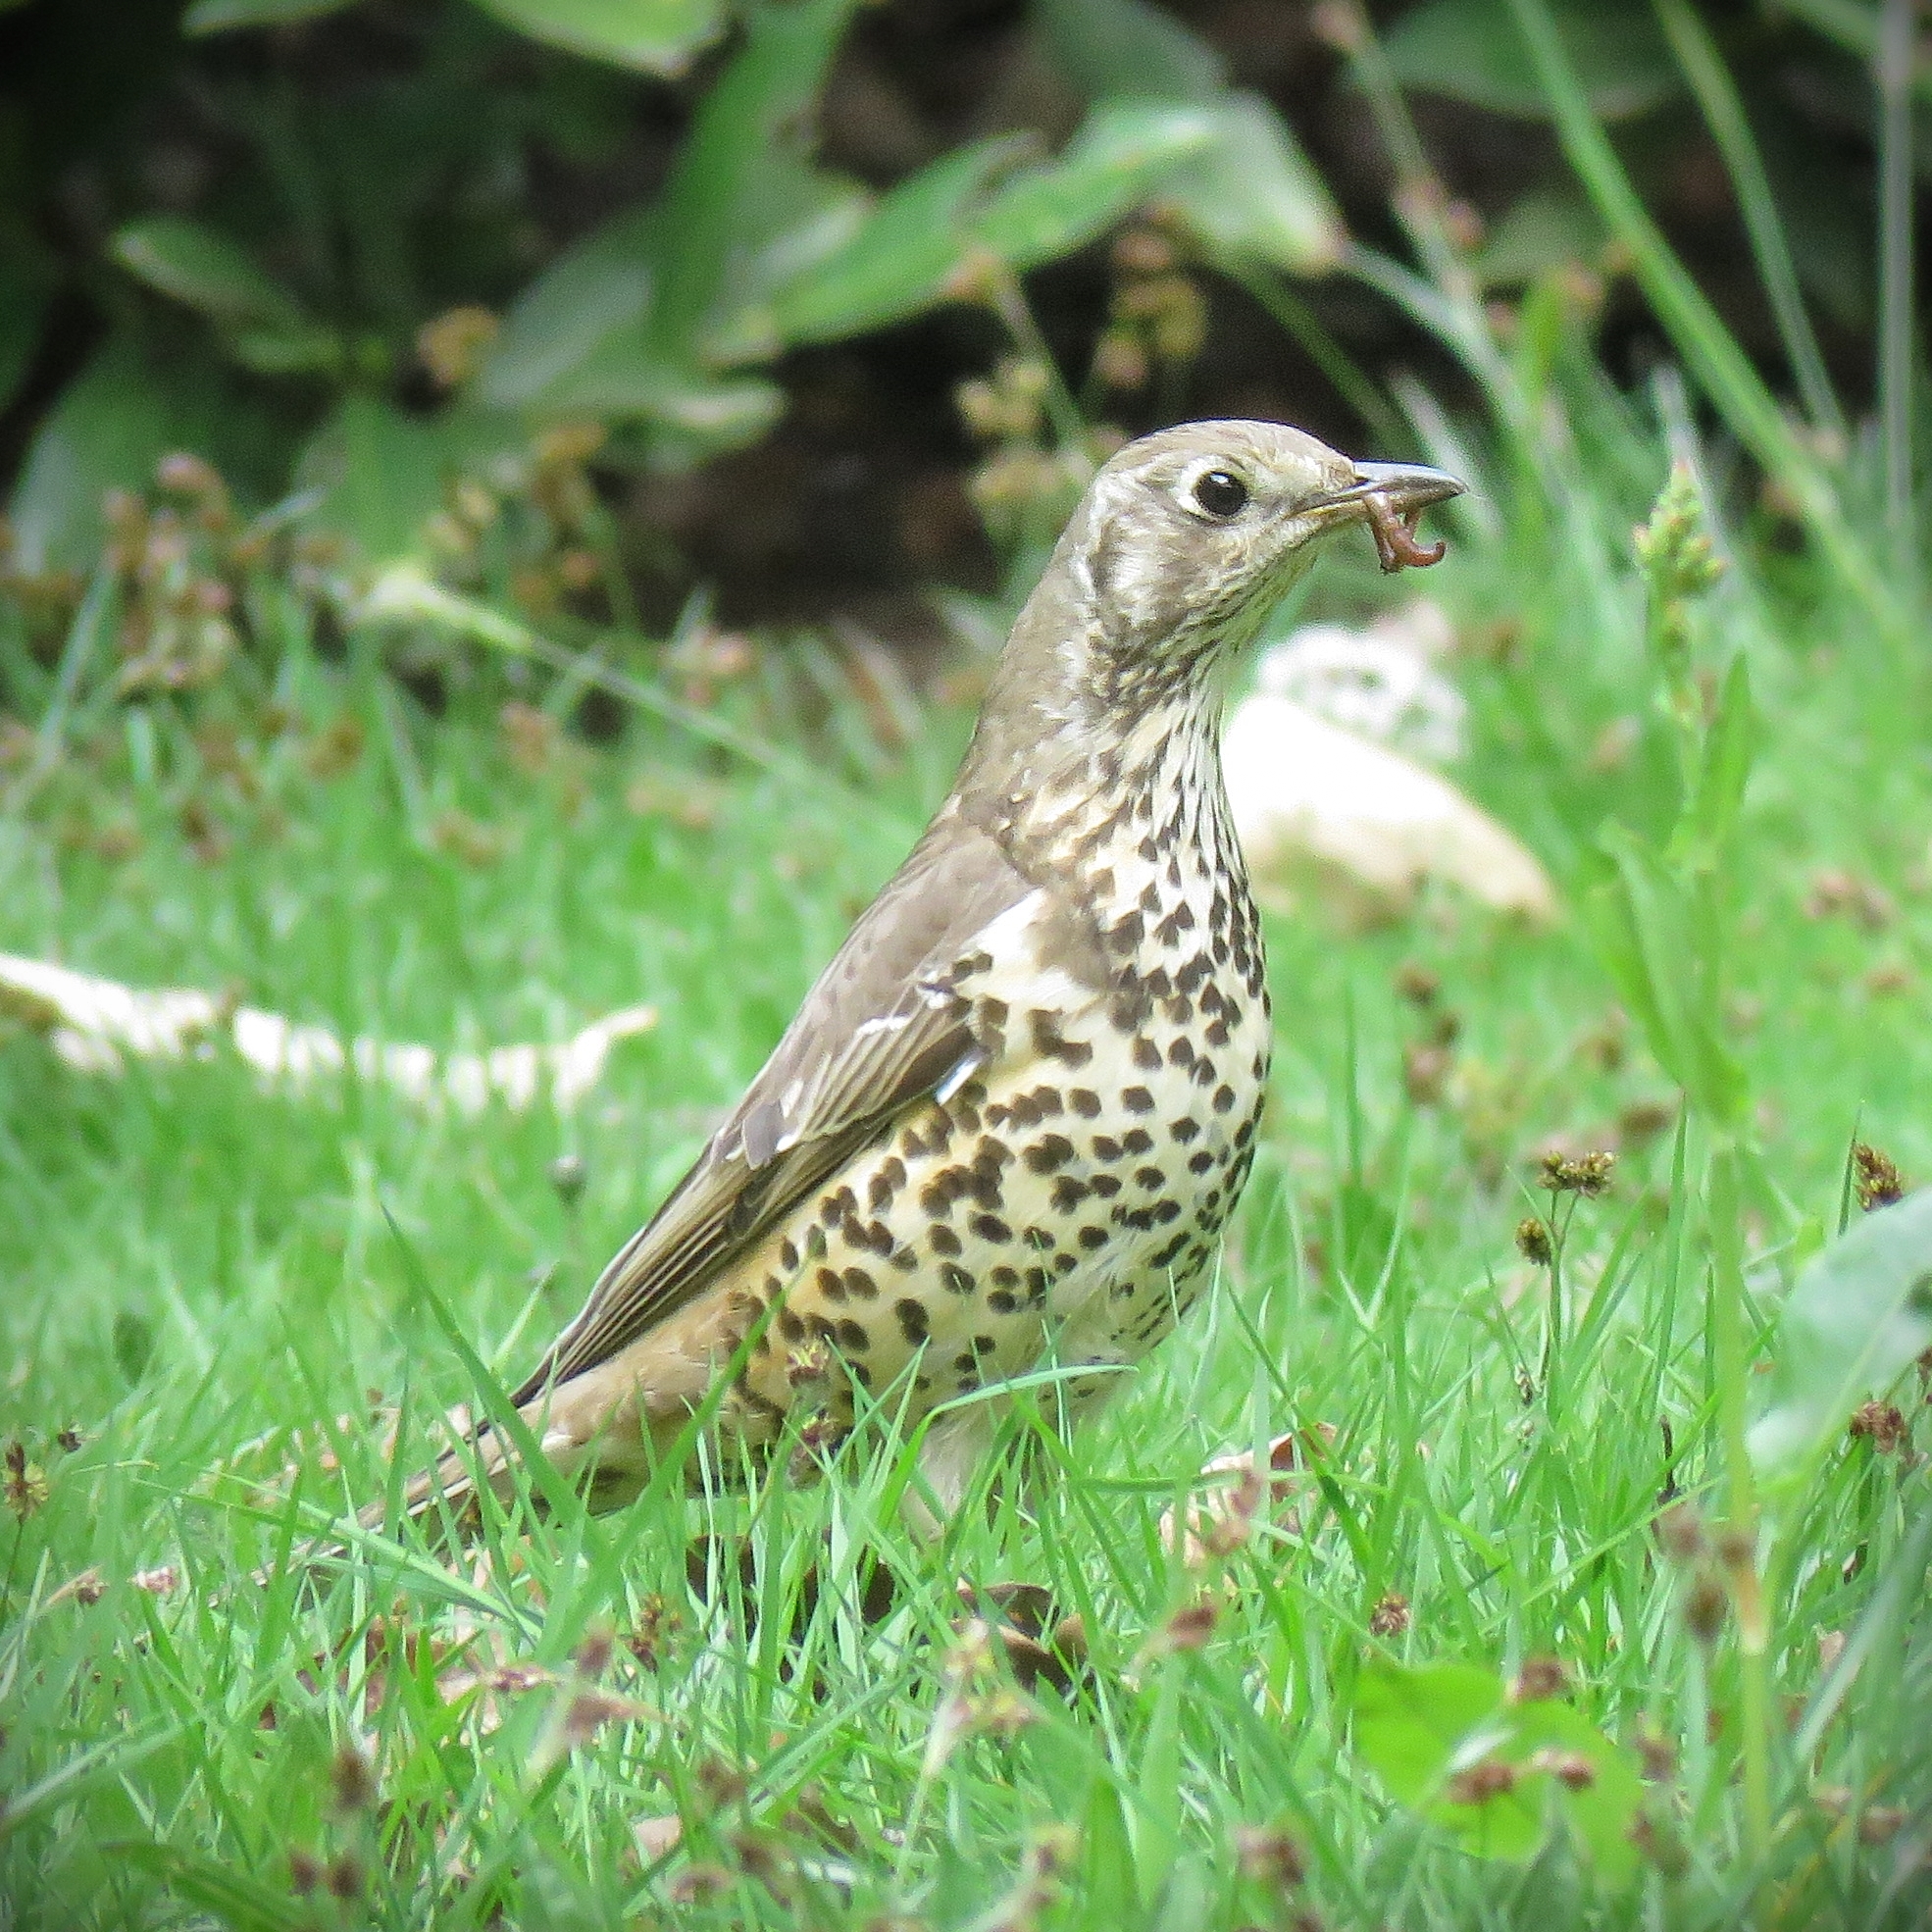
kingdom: Animalia
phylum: Chordata
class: Aves
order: Passeriformes
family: Turdidae
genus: Turdus
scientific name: Turdus viscivorus
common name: Mistle thrush
